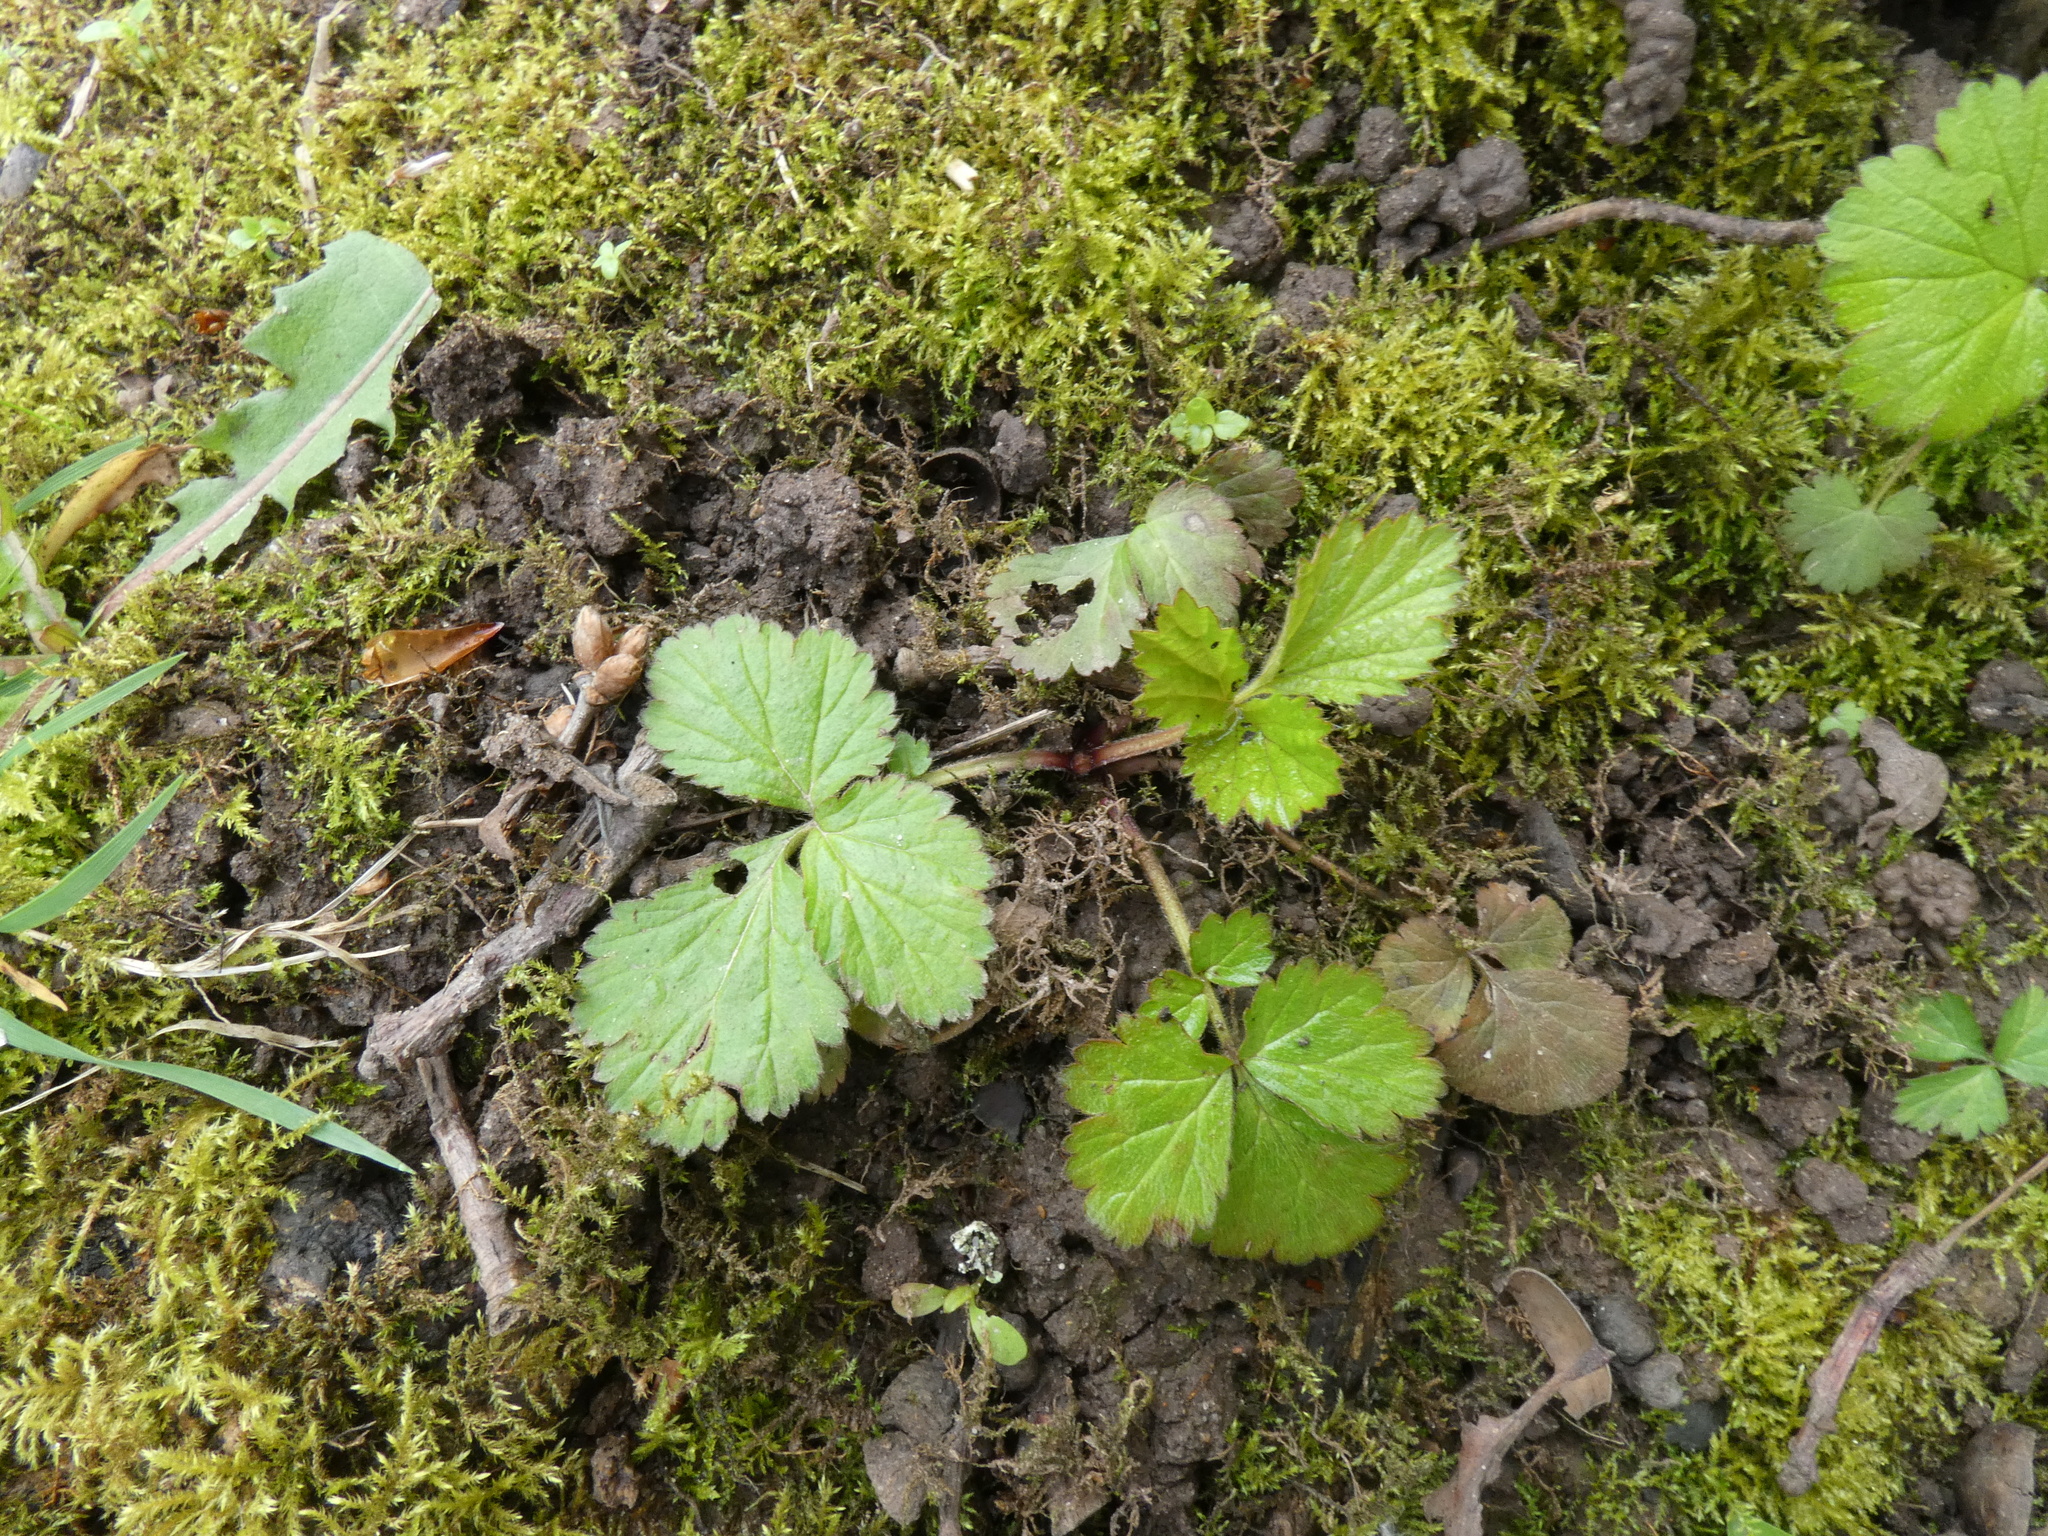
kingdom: Plantae
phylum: Tracheophyta
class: Magnoliopsida
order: Rosales
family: Rosaceae
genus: Geum
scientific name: Geum urbanum
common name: Wood avens
